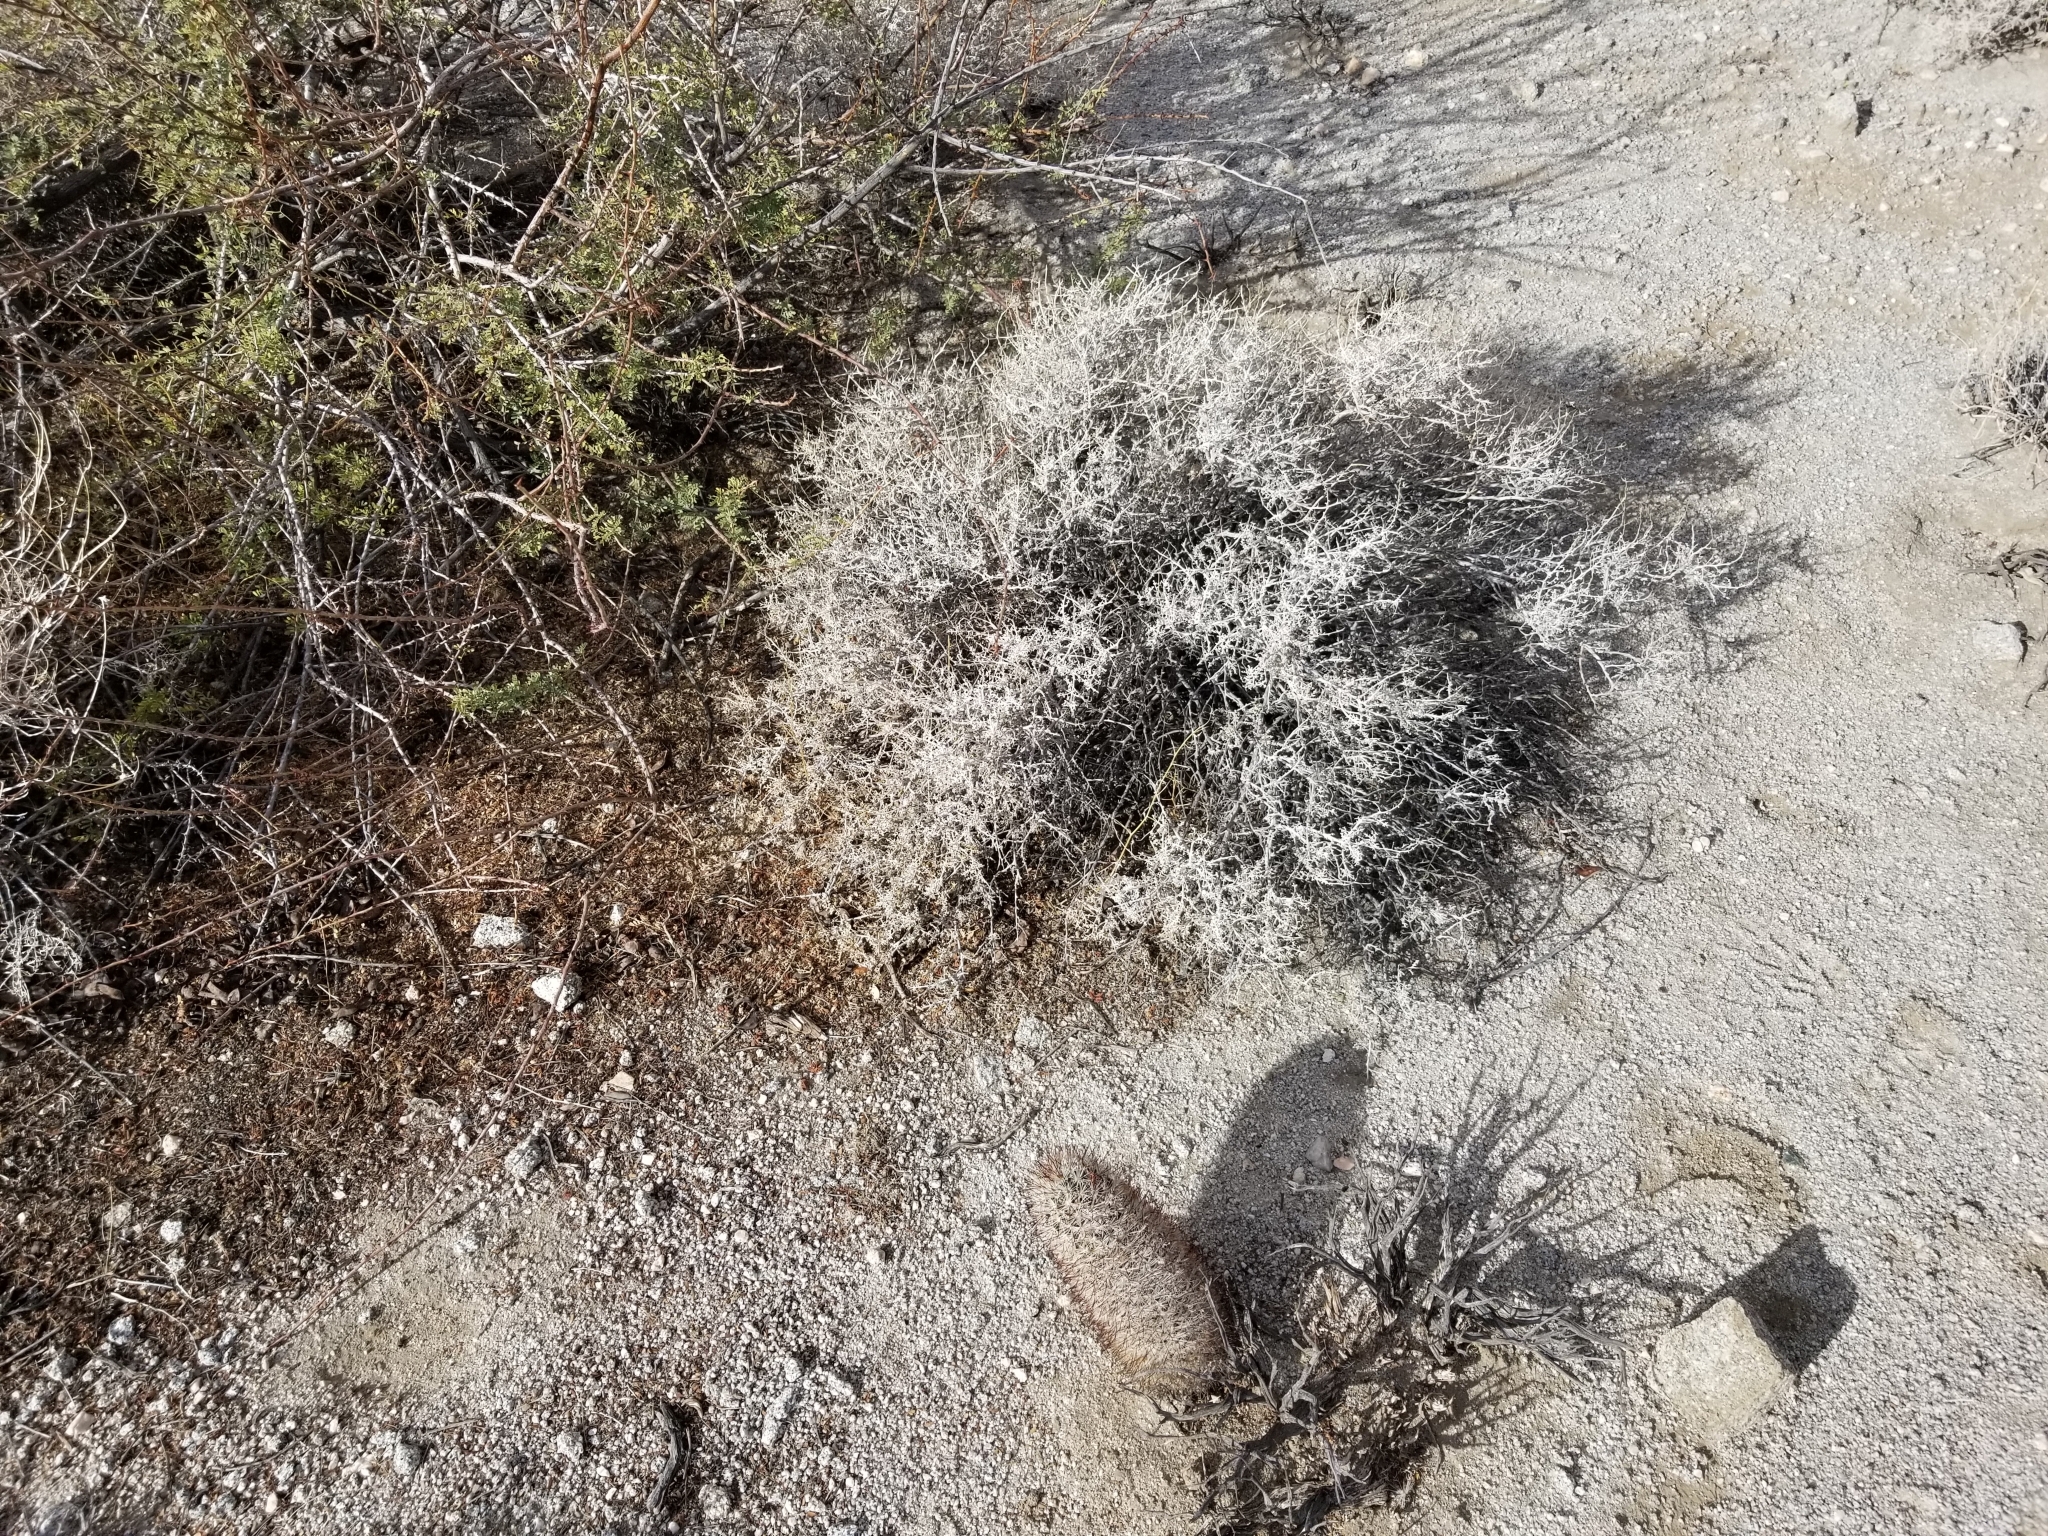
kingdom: Plantae
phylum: Tracheophyta
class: Magnoliopsida
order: Asterales
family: Asteraceae
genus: Ambrosia
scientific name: Ambrosia dumosa
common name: Bur-sage
